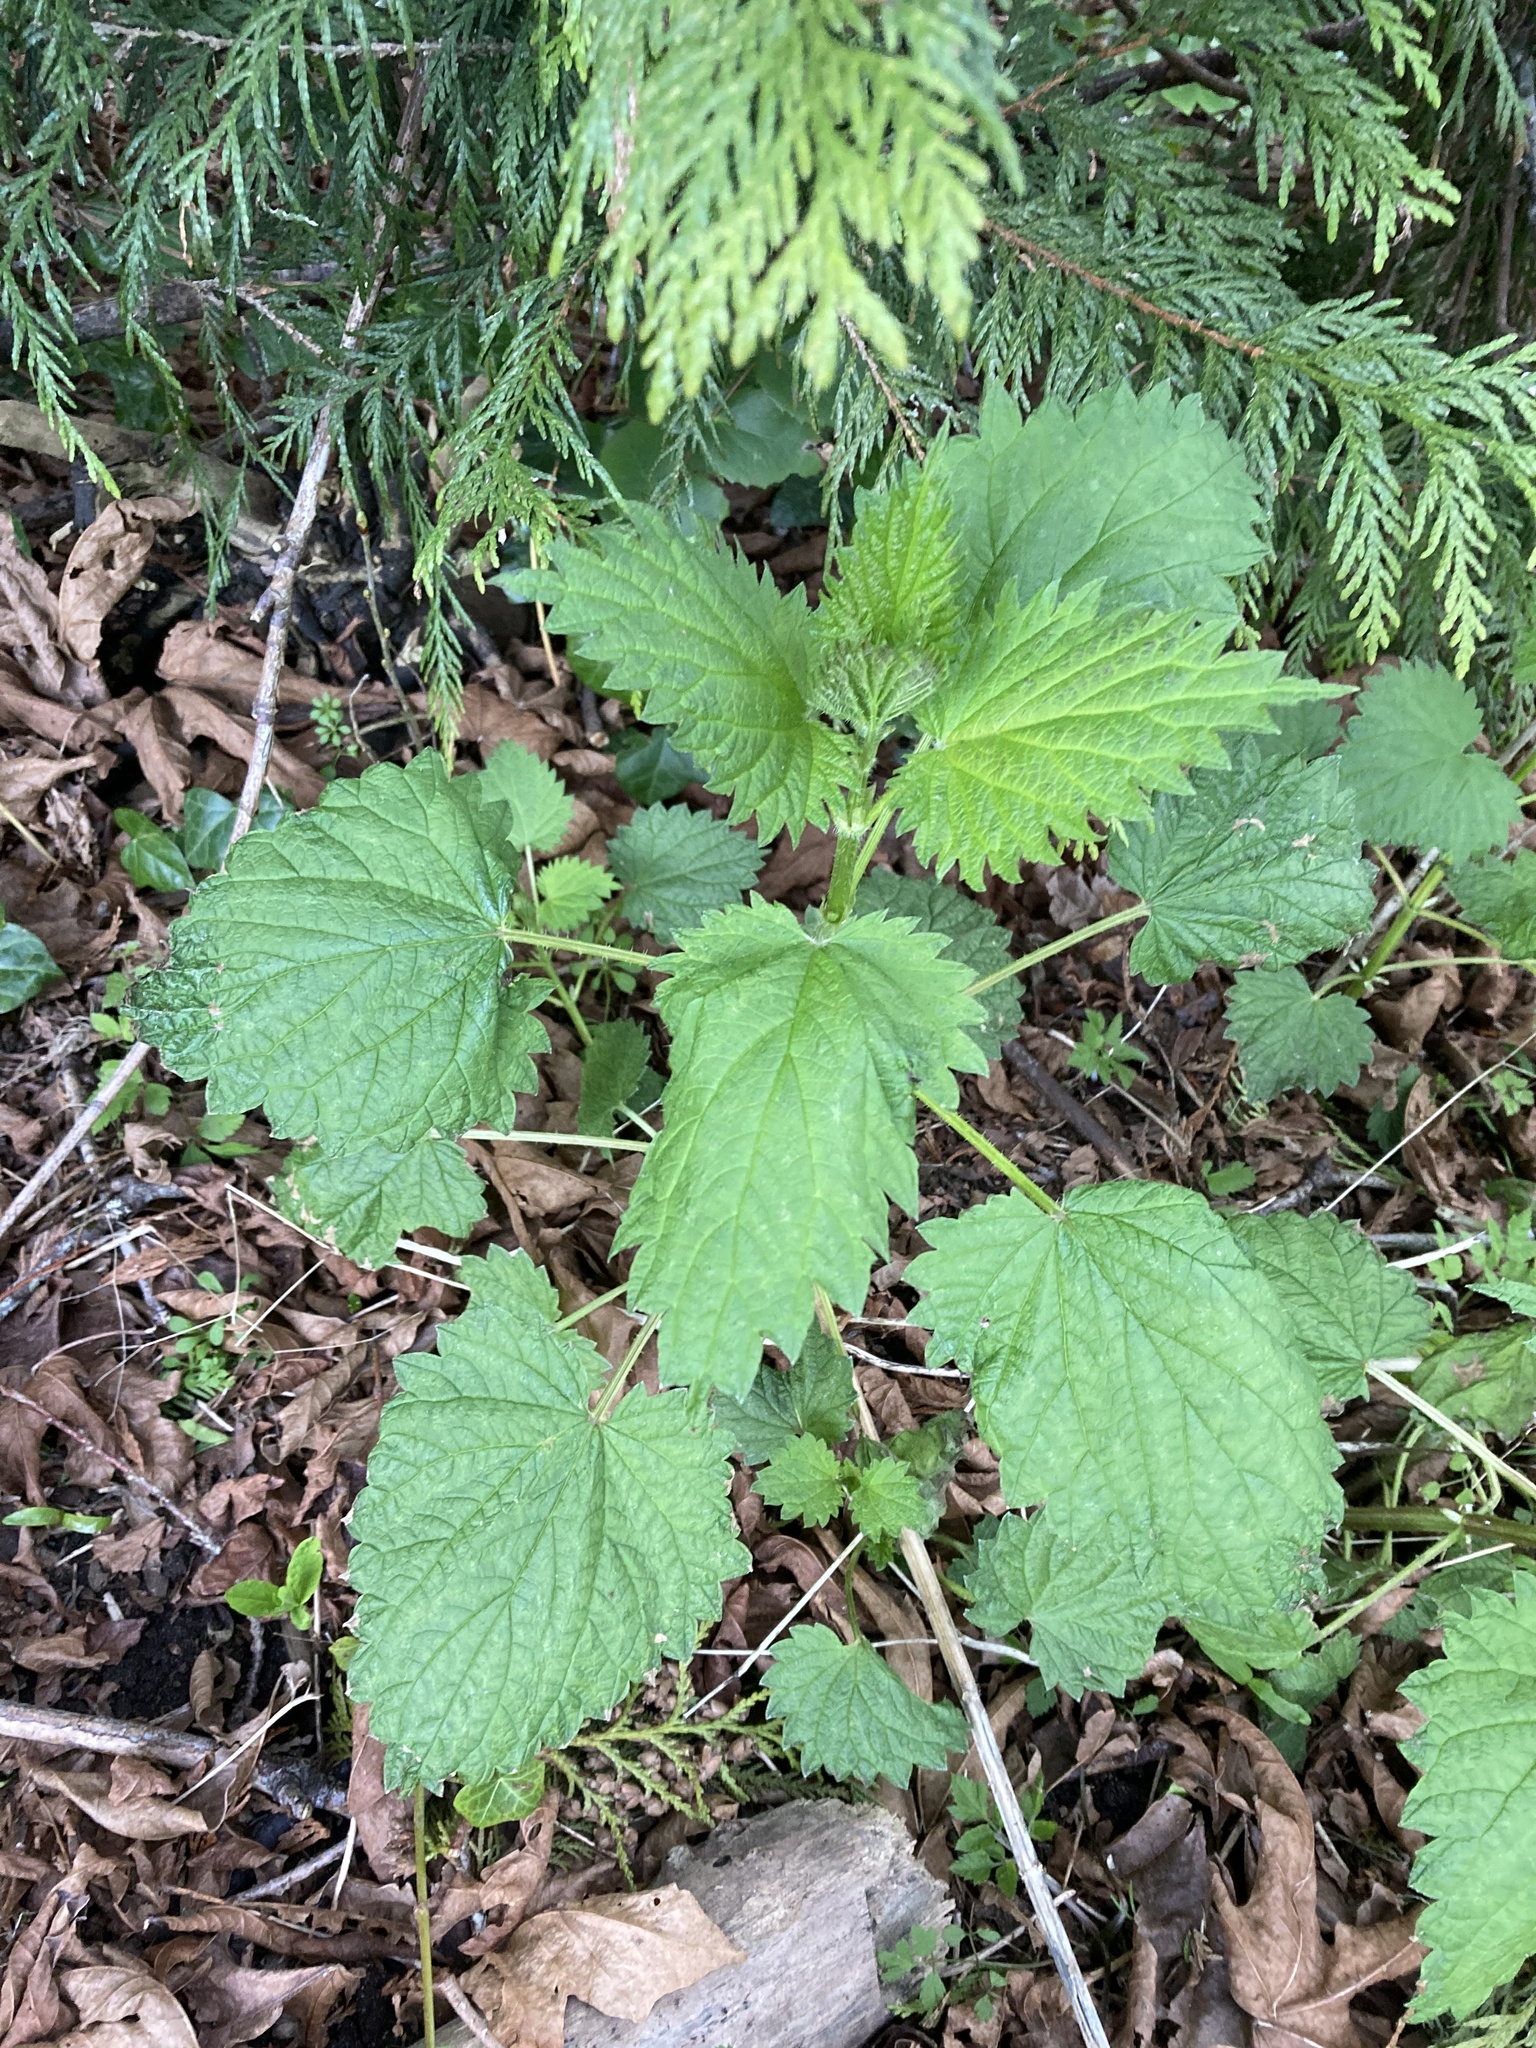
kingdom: Plantae
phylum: Tracheophyta
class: Magnoliopsida
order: Rosales
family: Urticaceae
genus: Urtica
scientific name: Urtica gracilis
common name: Slender stinging nettle
